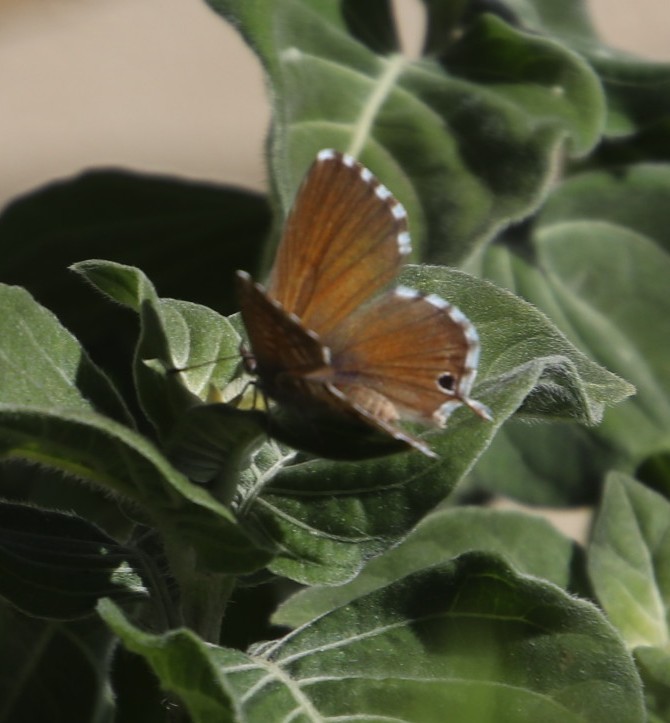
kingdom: Animalia
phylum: Arthropoda
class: Insecta
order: Lepidoptera
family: Lycaenidae
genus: Cacyreus
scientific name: Cacyreus marshalli
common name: Geranium bronze
